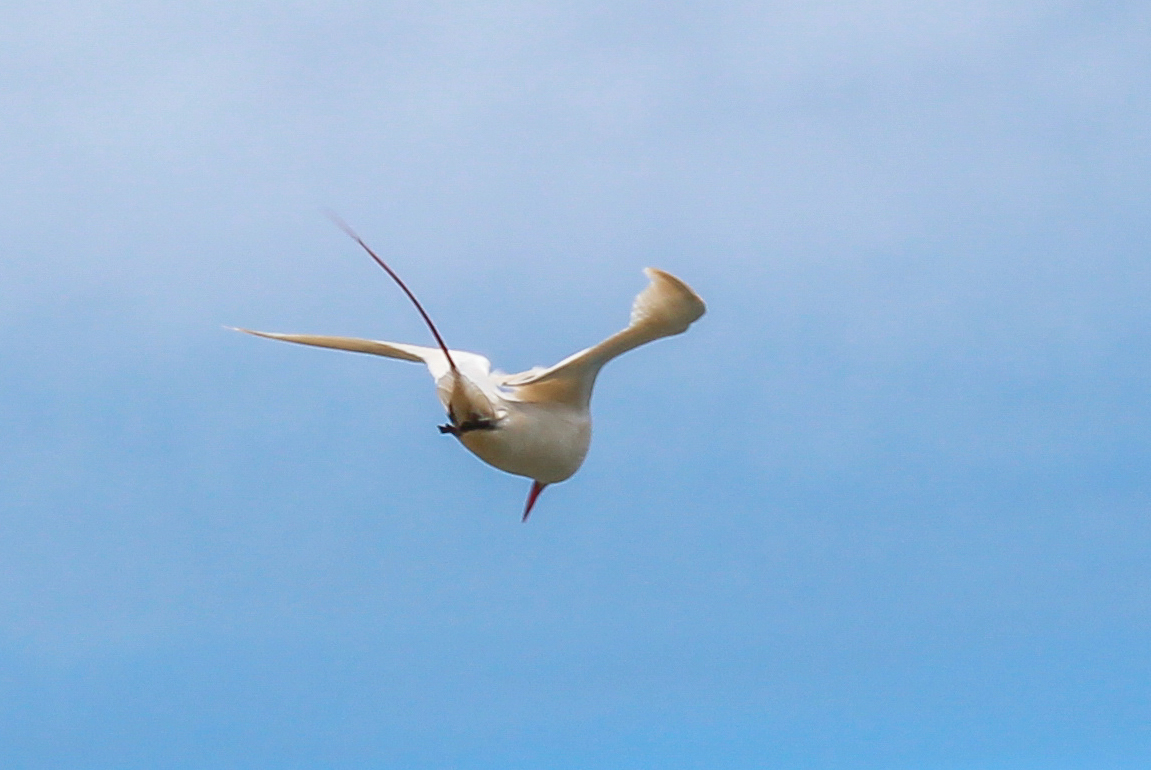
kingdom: Animalia
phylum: Chordata
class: Aves
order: Phaethontiformes
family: Phaethontidae
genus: Phaethon
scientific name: Phaethon rubricauda
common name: Red-tailed tropicbird
